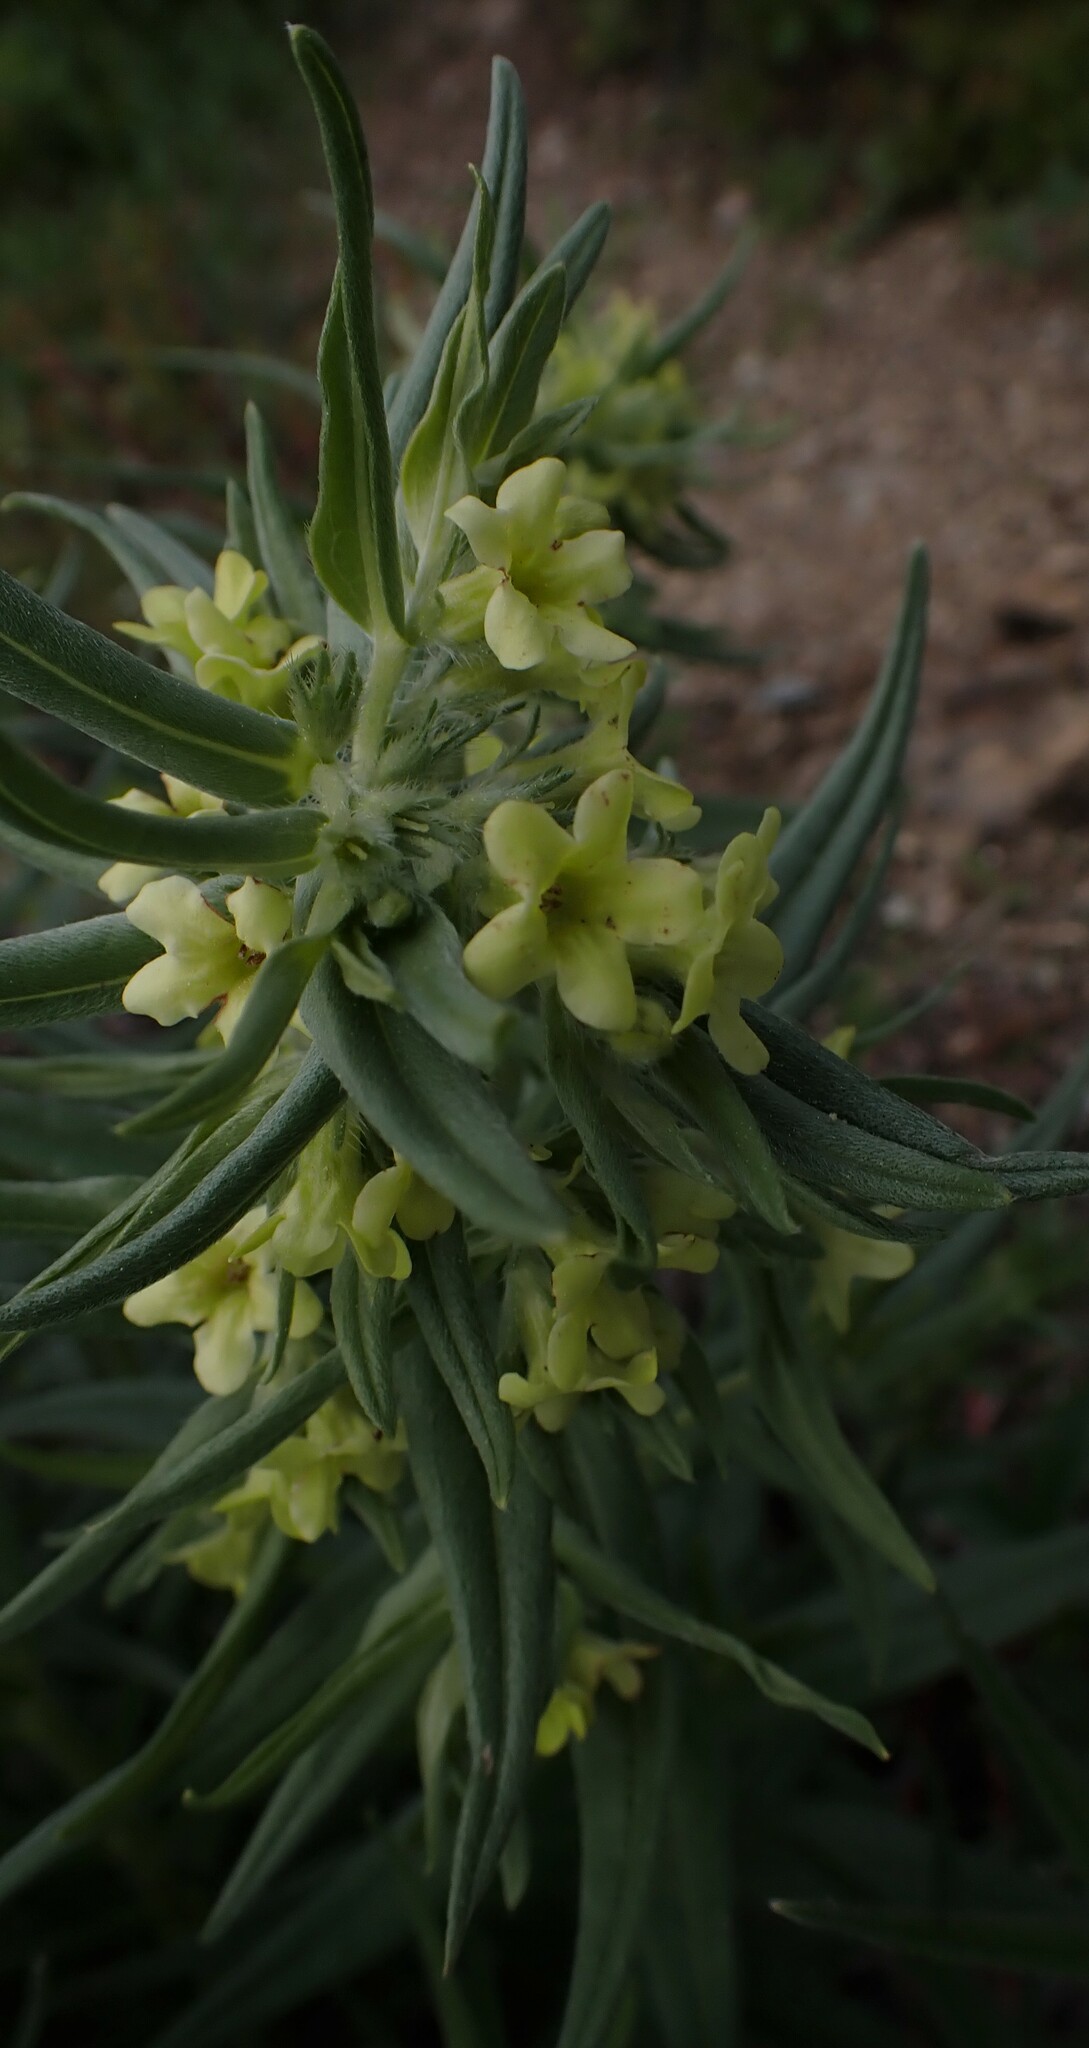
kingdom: Plantae
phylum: Tracheophyta
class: Magnoliopsida
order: Boraginales
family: Boraginaceae
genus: Lithospermum
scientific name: Lithospermum ruderale
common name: Western gromwell
